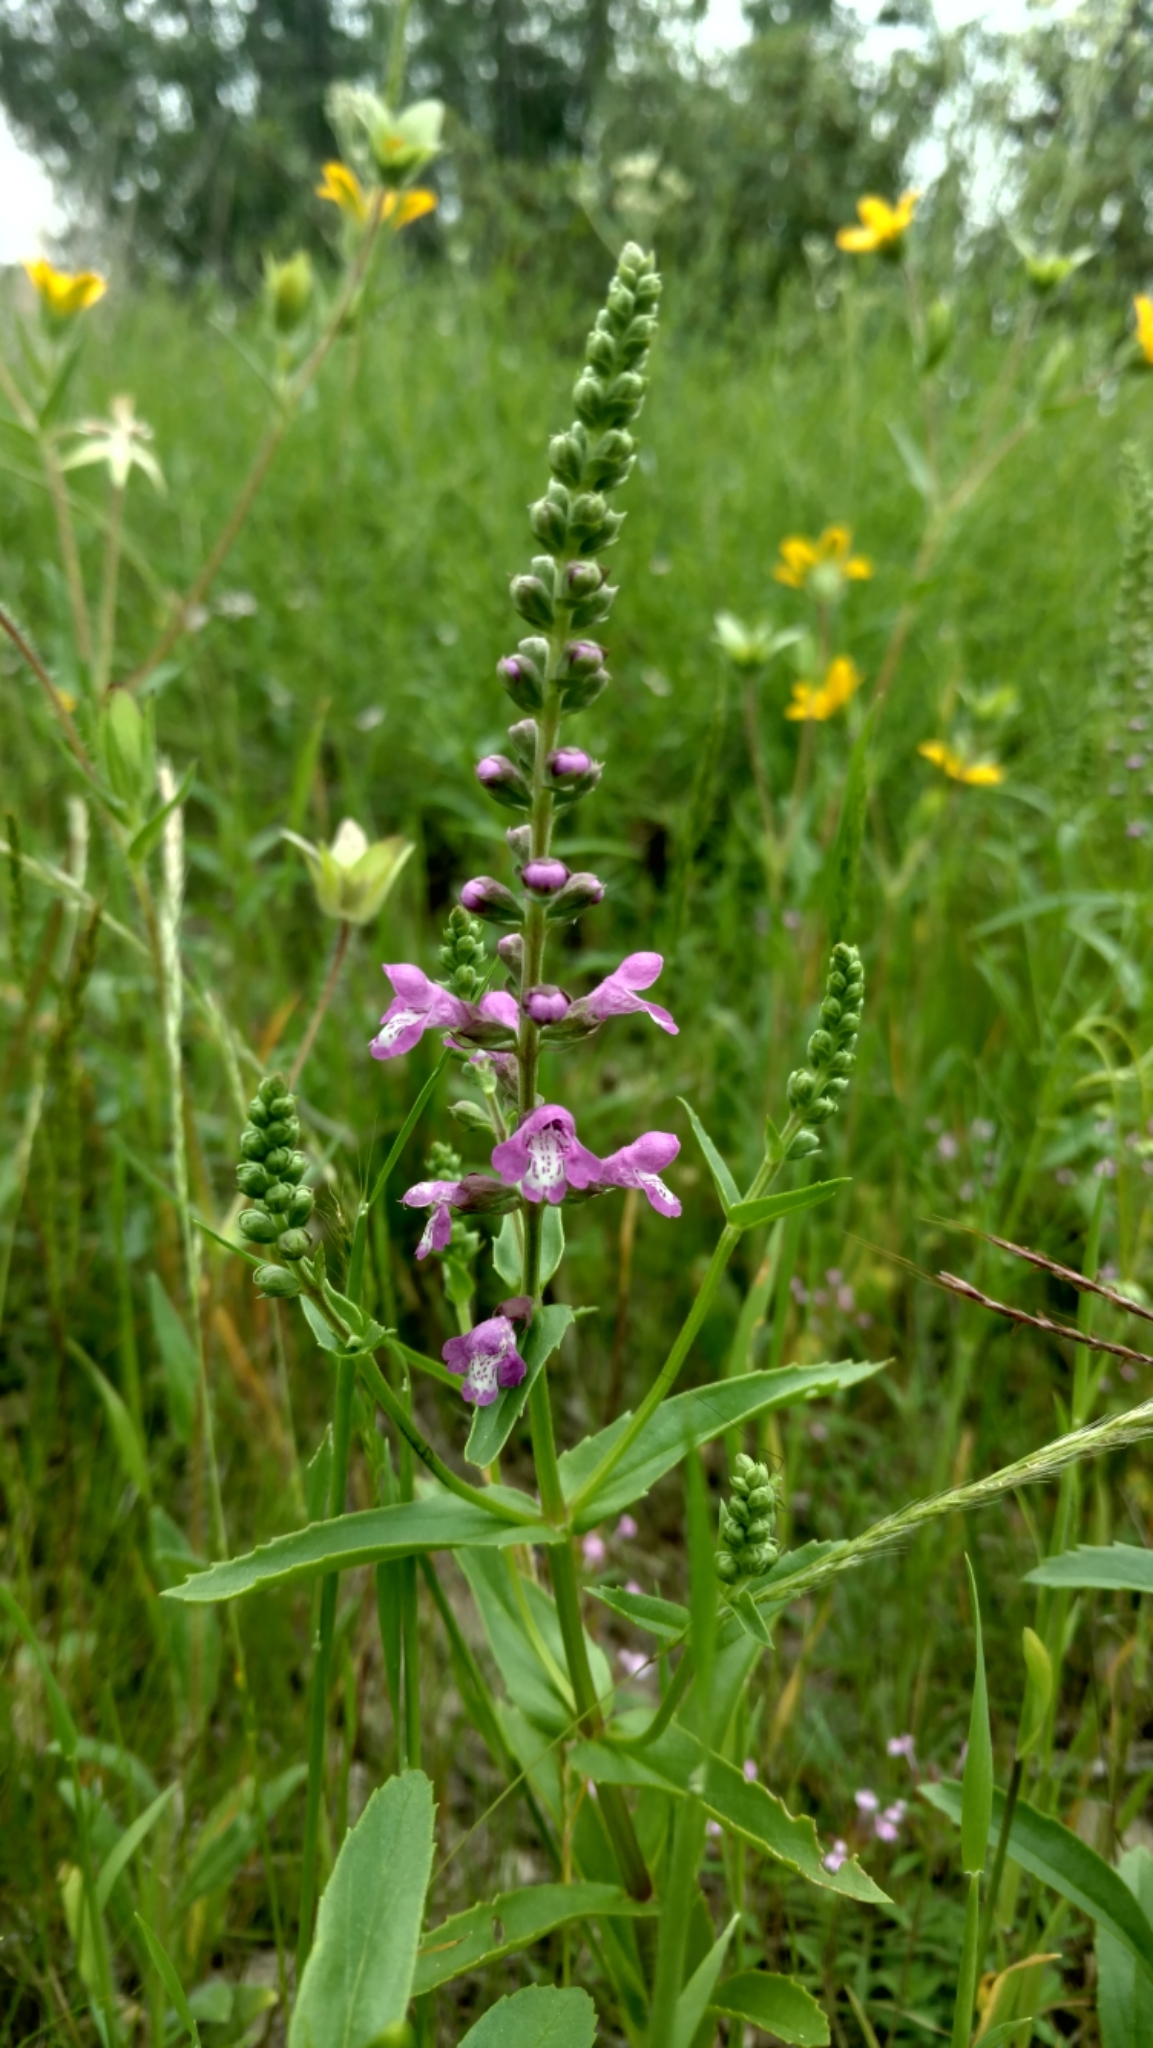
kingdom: Plantae
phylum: Tracheophyta
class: Magnoliopsida
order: Lamiales
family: Lamiaceae
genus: Warnockia
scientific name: Warnockia scutellarioides
